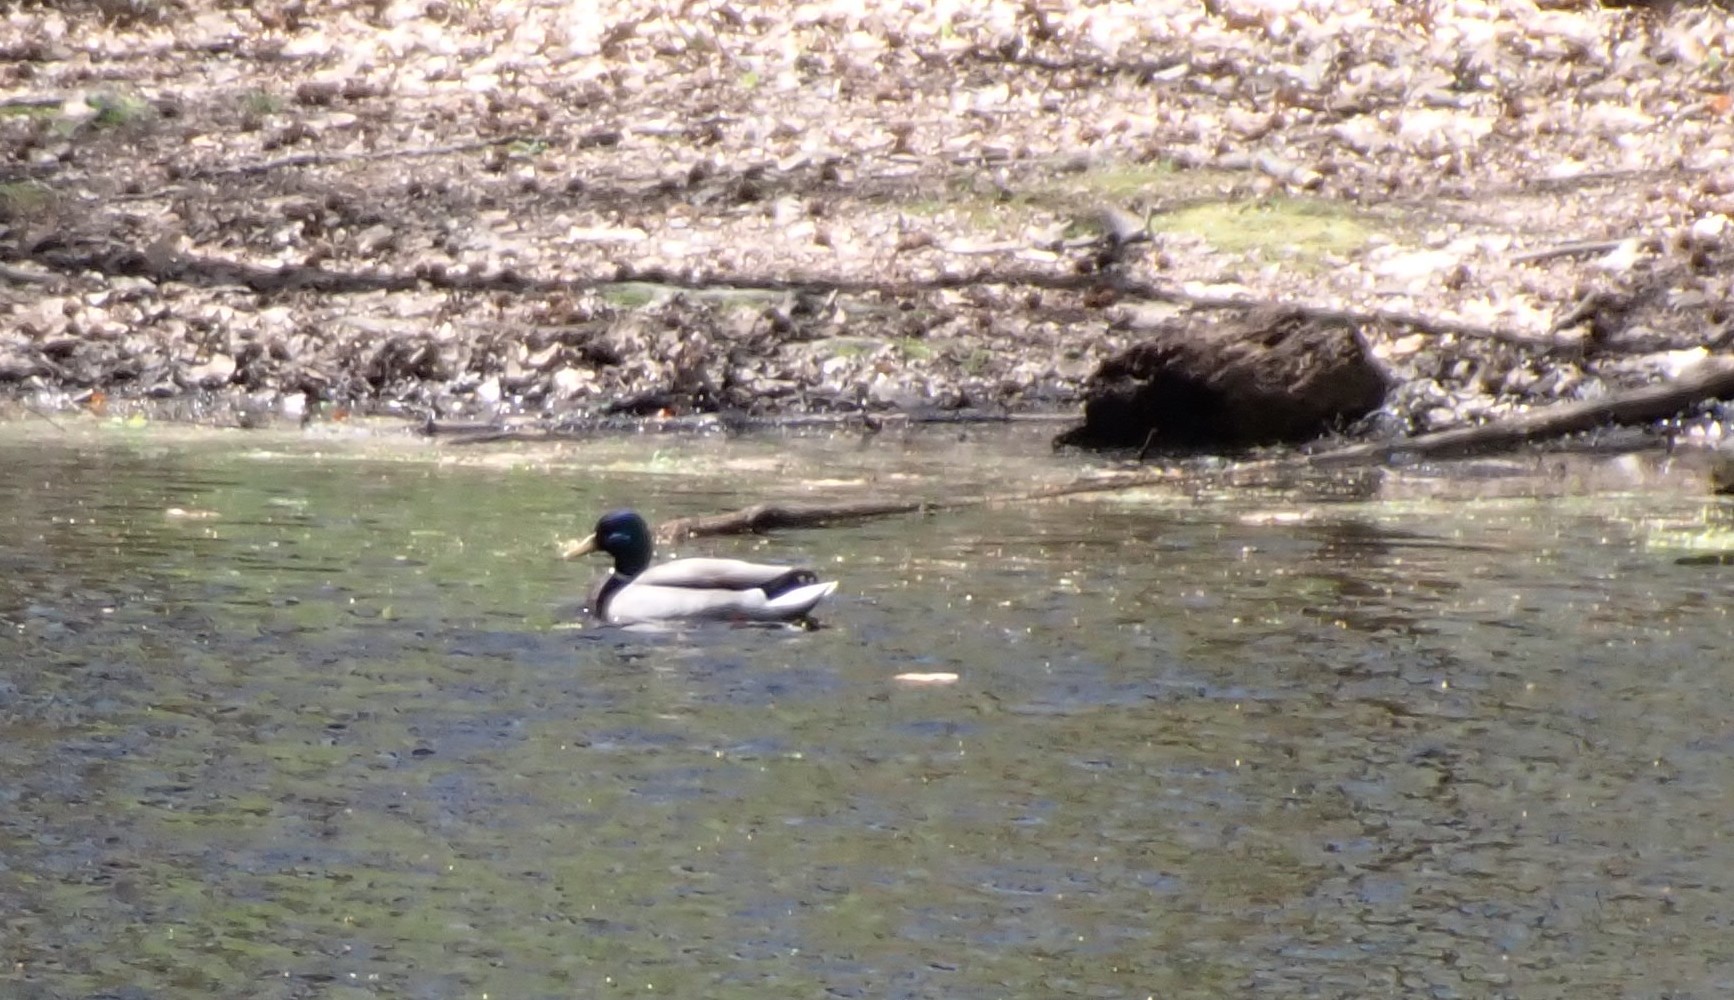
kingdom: Animalia
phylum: Chordata
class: Aves
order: Anseriformes
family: Anatidae
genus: Anas
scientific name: Anas platyrhynchos
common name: Mallard
